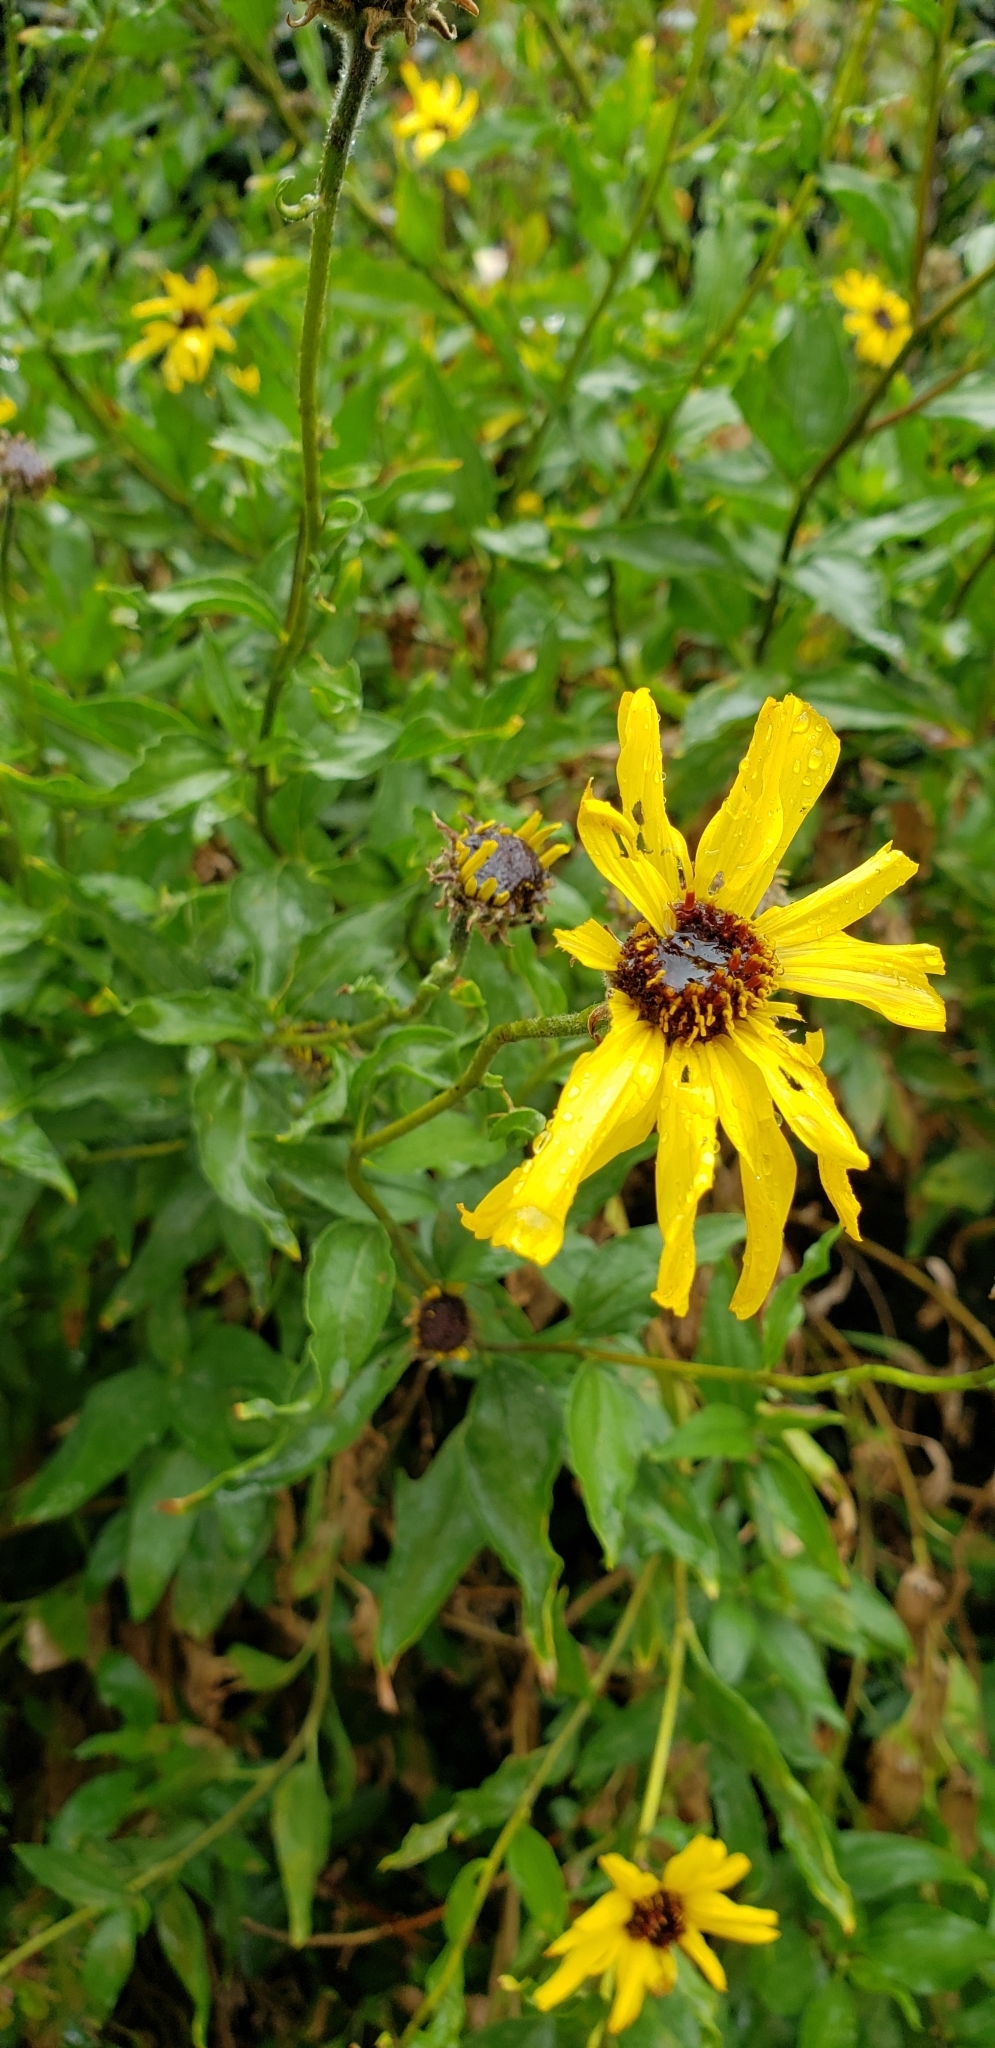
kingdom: Plantae
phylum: Tracheophyta
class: Magnoliopsida
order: Asterales
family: Asteraceae
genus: Encelia
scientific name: Encelia californica
